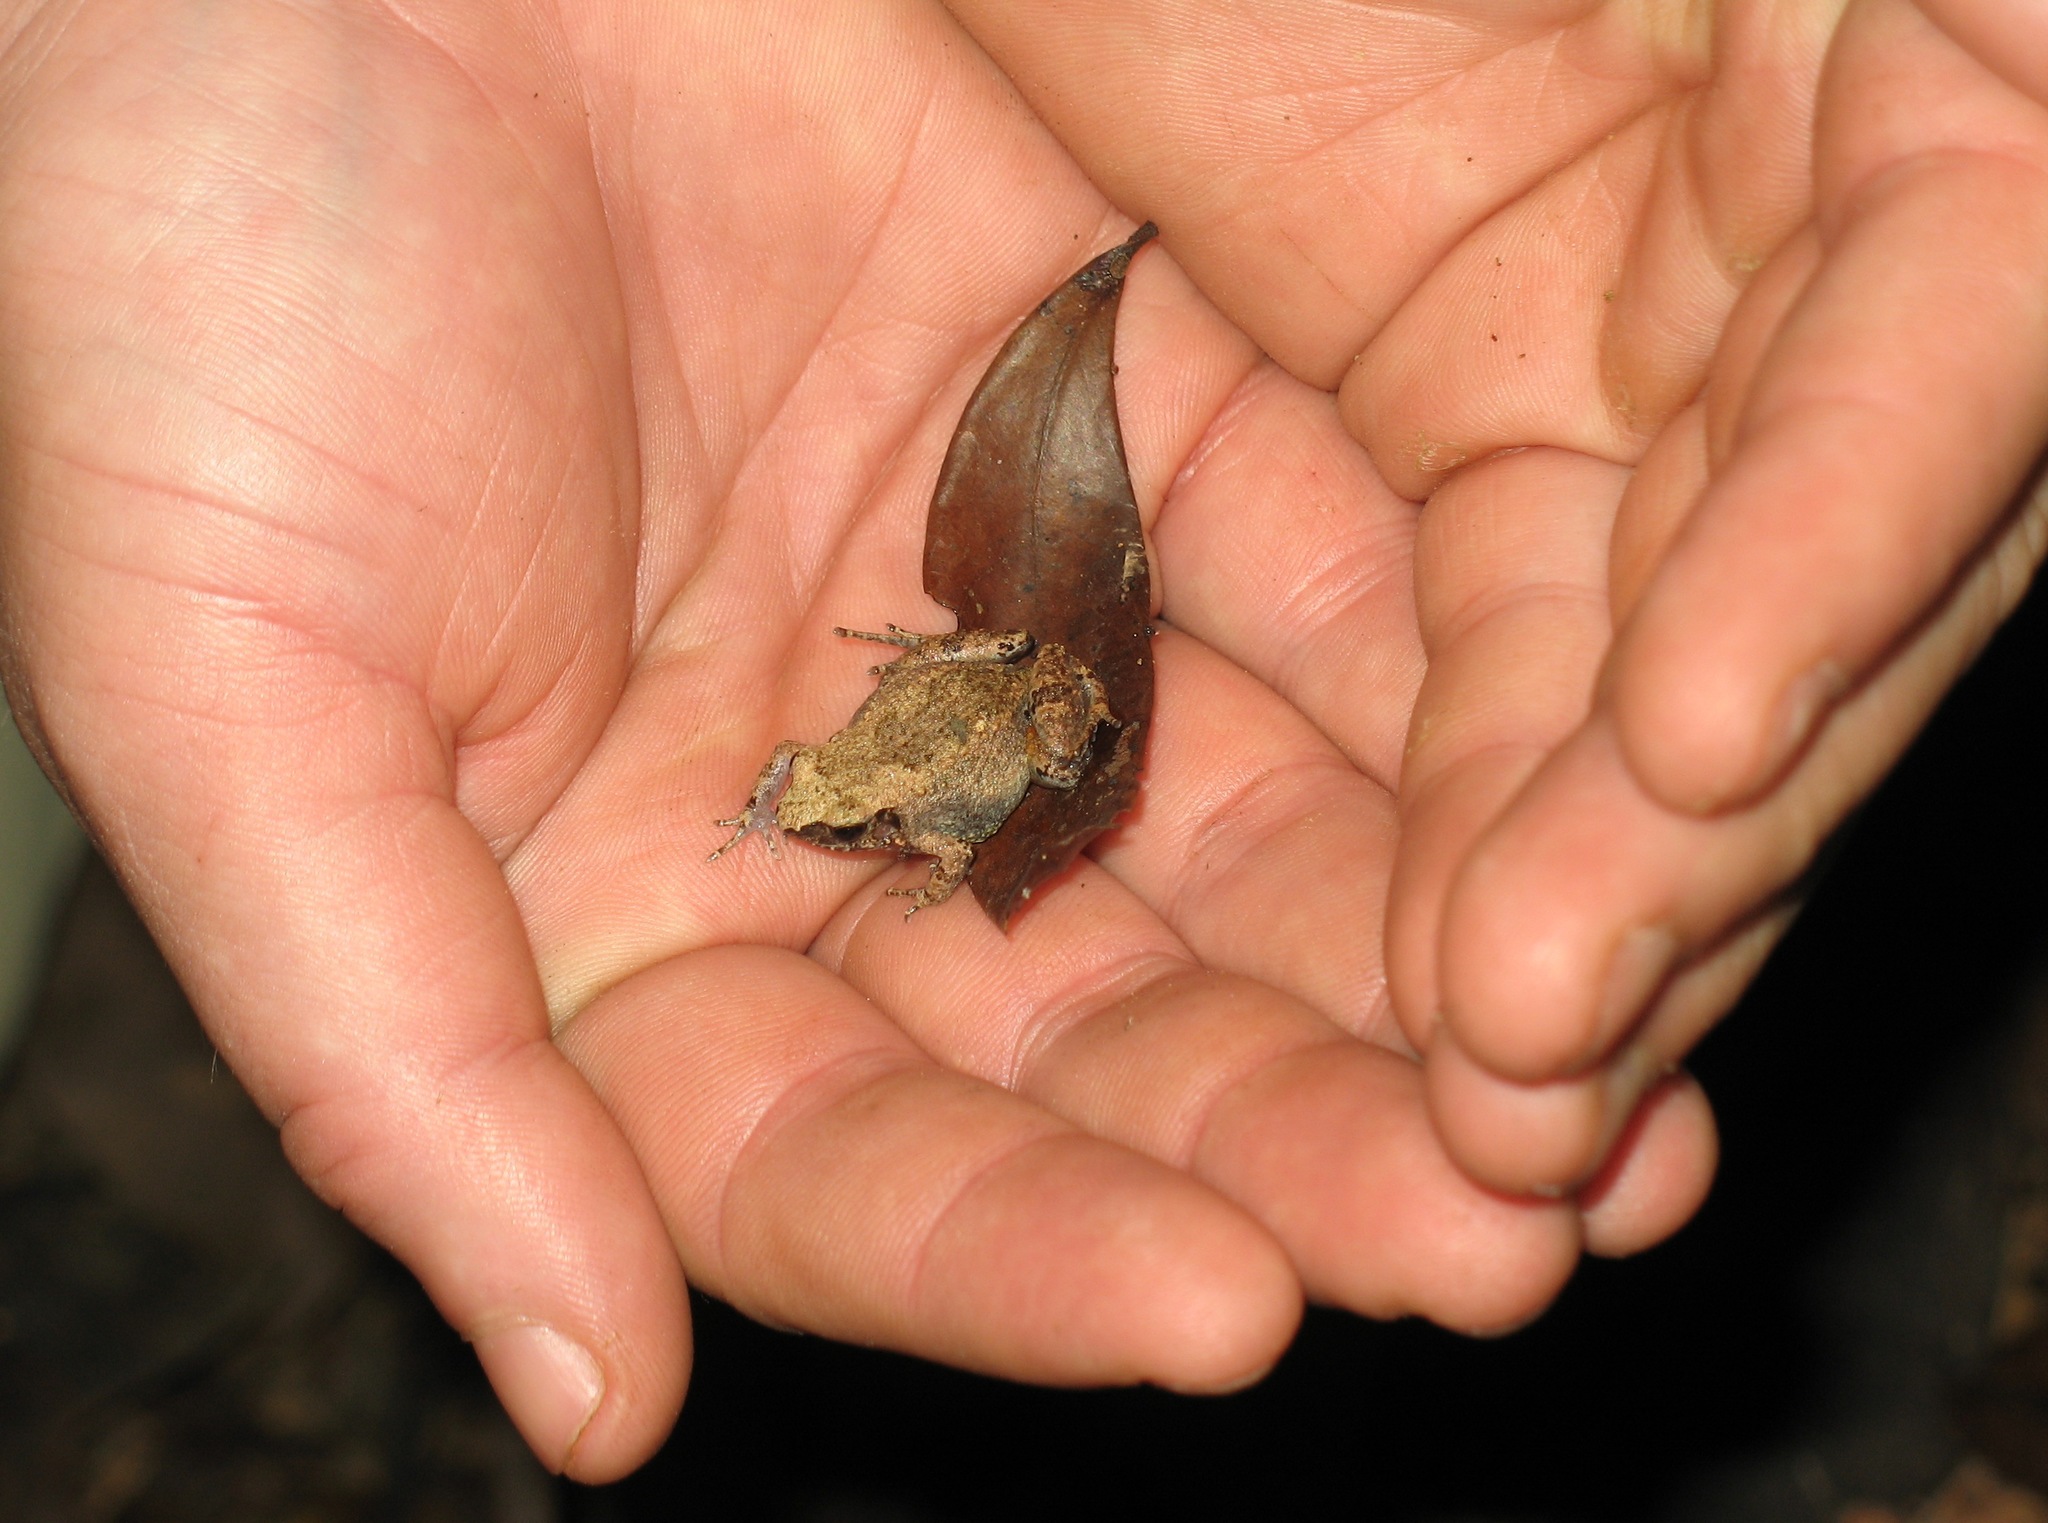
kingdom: Animalia
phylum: Chordata
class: Amphibia
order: Anura
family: Arthroleptidae
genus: Arthroleptis
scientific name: Arthroleptis sylvaticus
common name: Forest screeching frog
